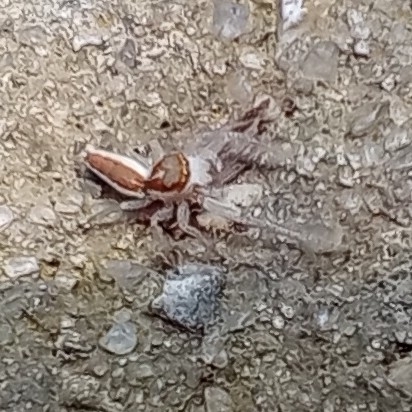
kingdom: Animalia
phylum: Arthropoda
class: Arachnida
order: Araneae
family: Salticidae
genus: Hentzia
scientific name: Hentzia mitrata
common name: White-jawed jumping spider
